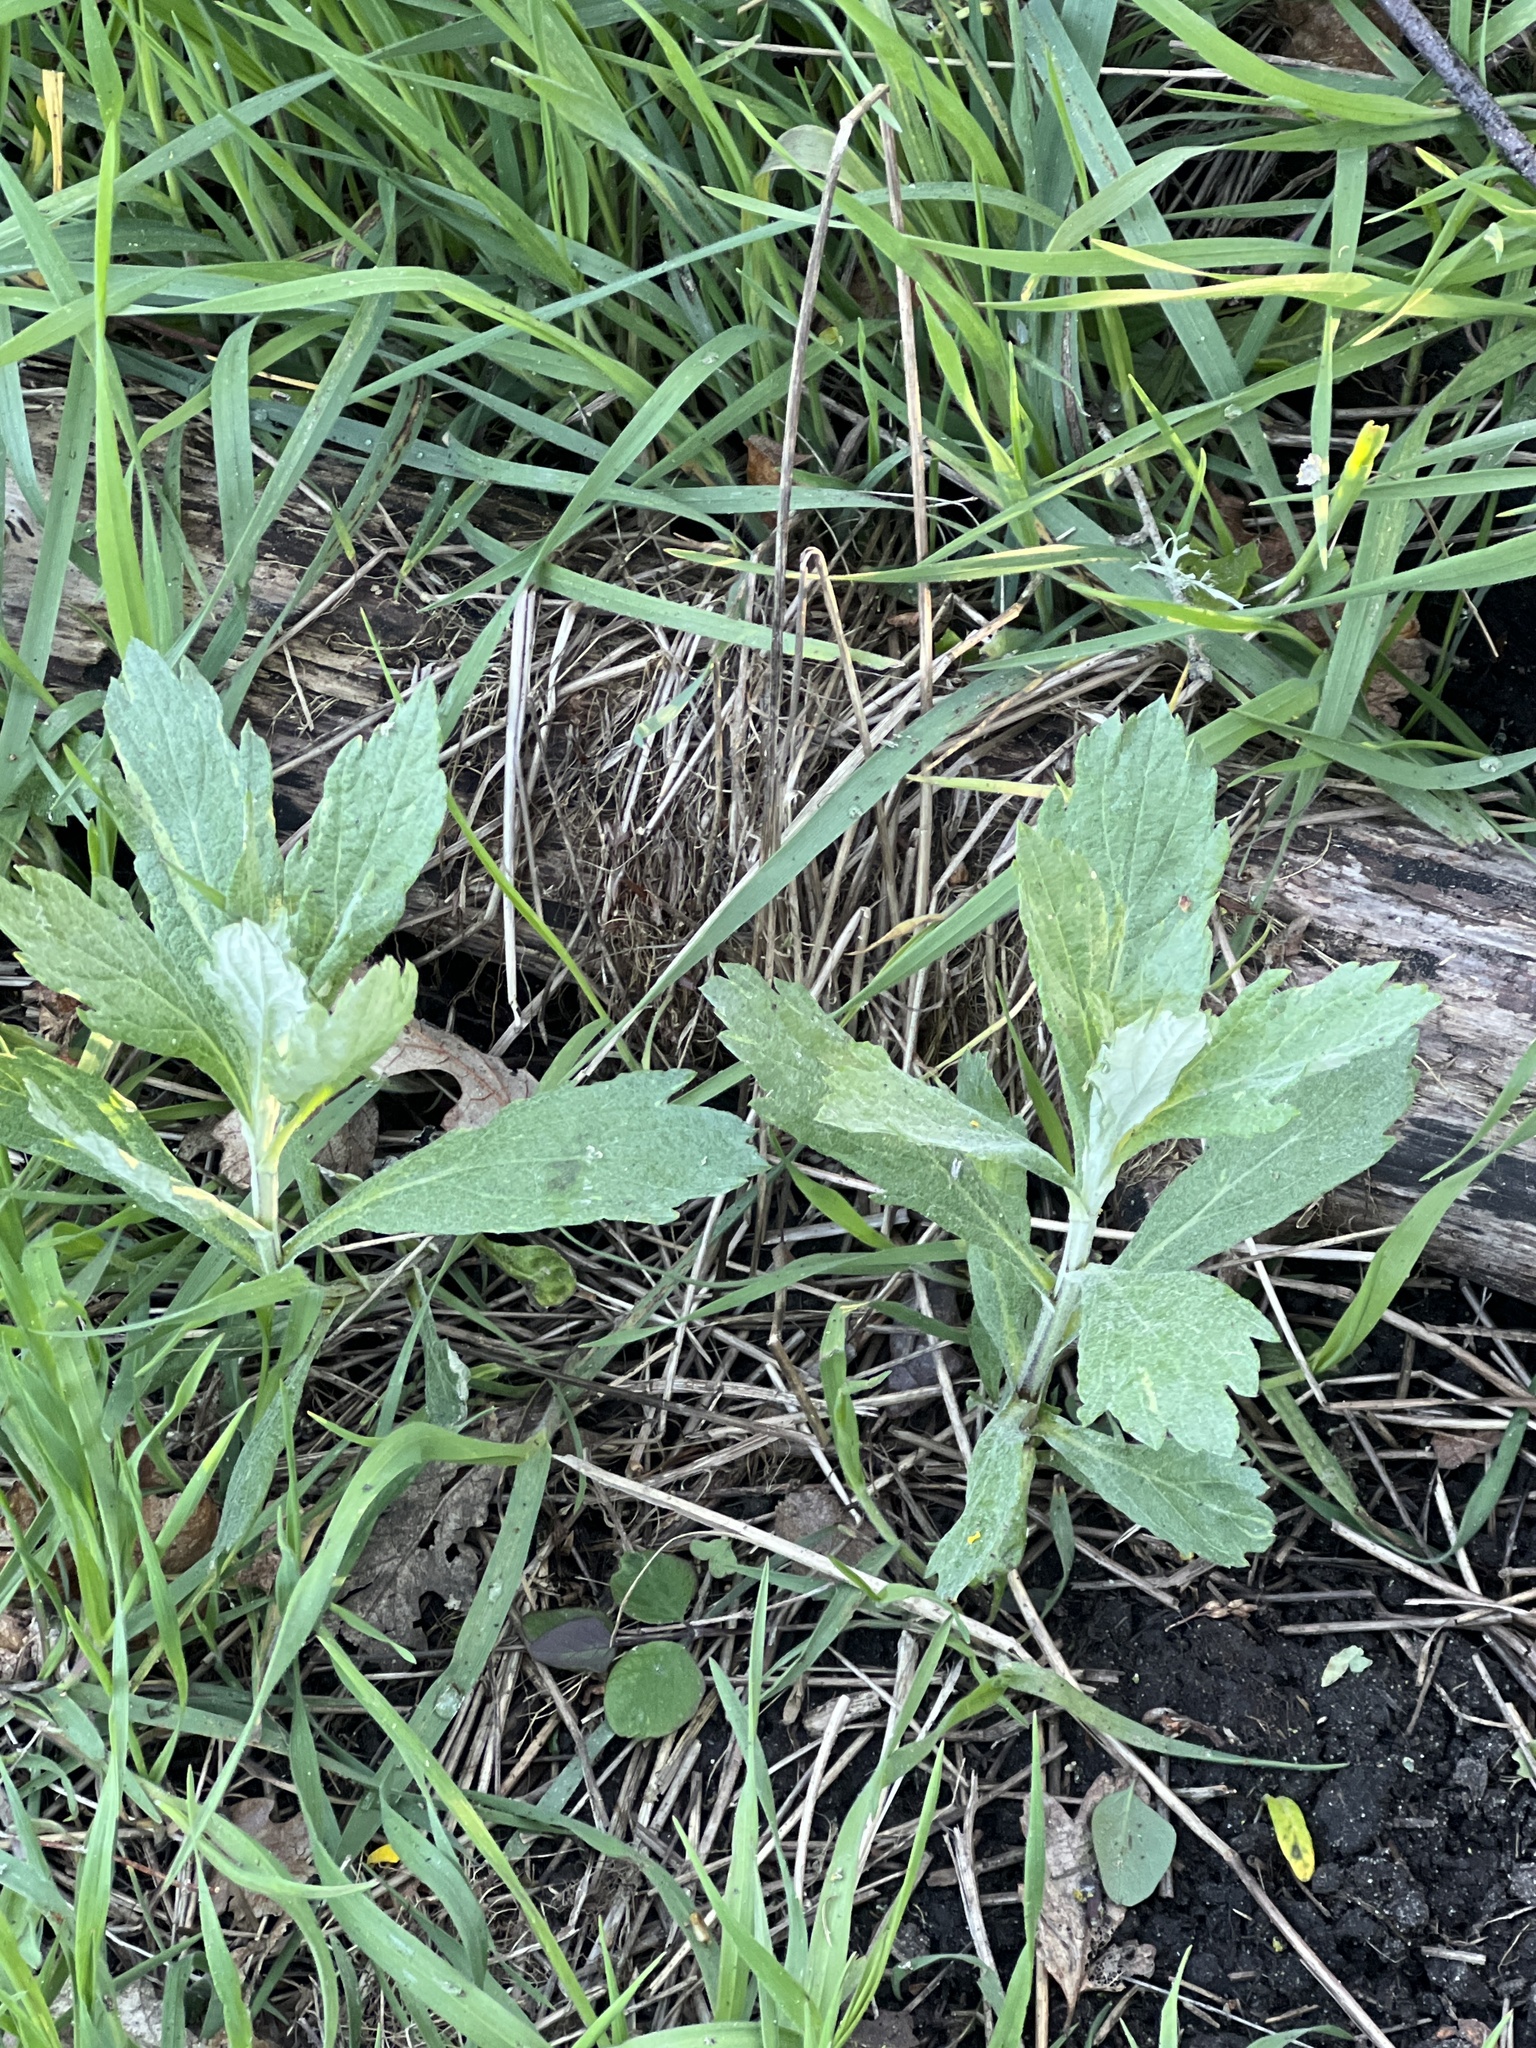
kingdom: Plantae
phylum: Tracheophyta
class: Magnoliopsida
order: Asterales
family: Asteraceae
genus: Artemisia
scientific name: Artemisia vulgaris
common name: Mugwort
